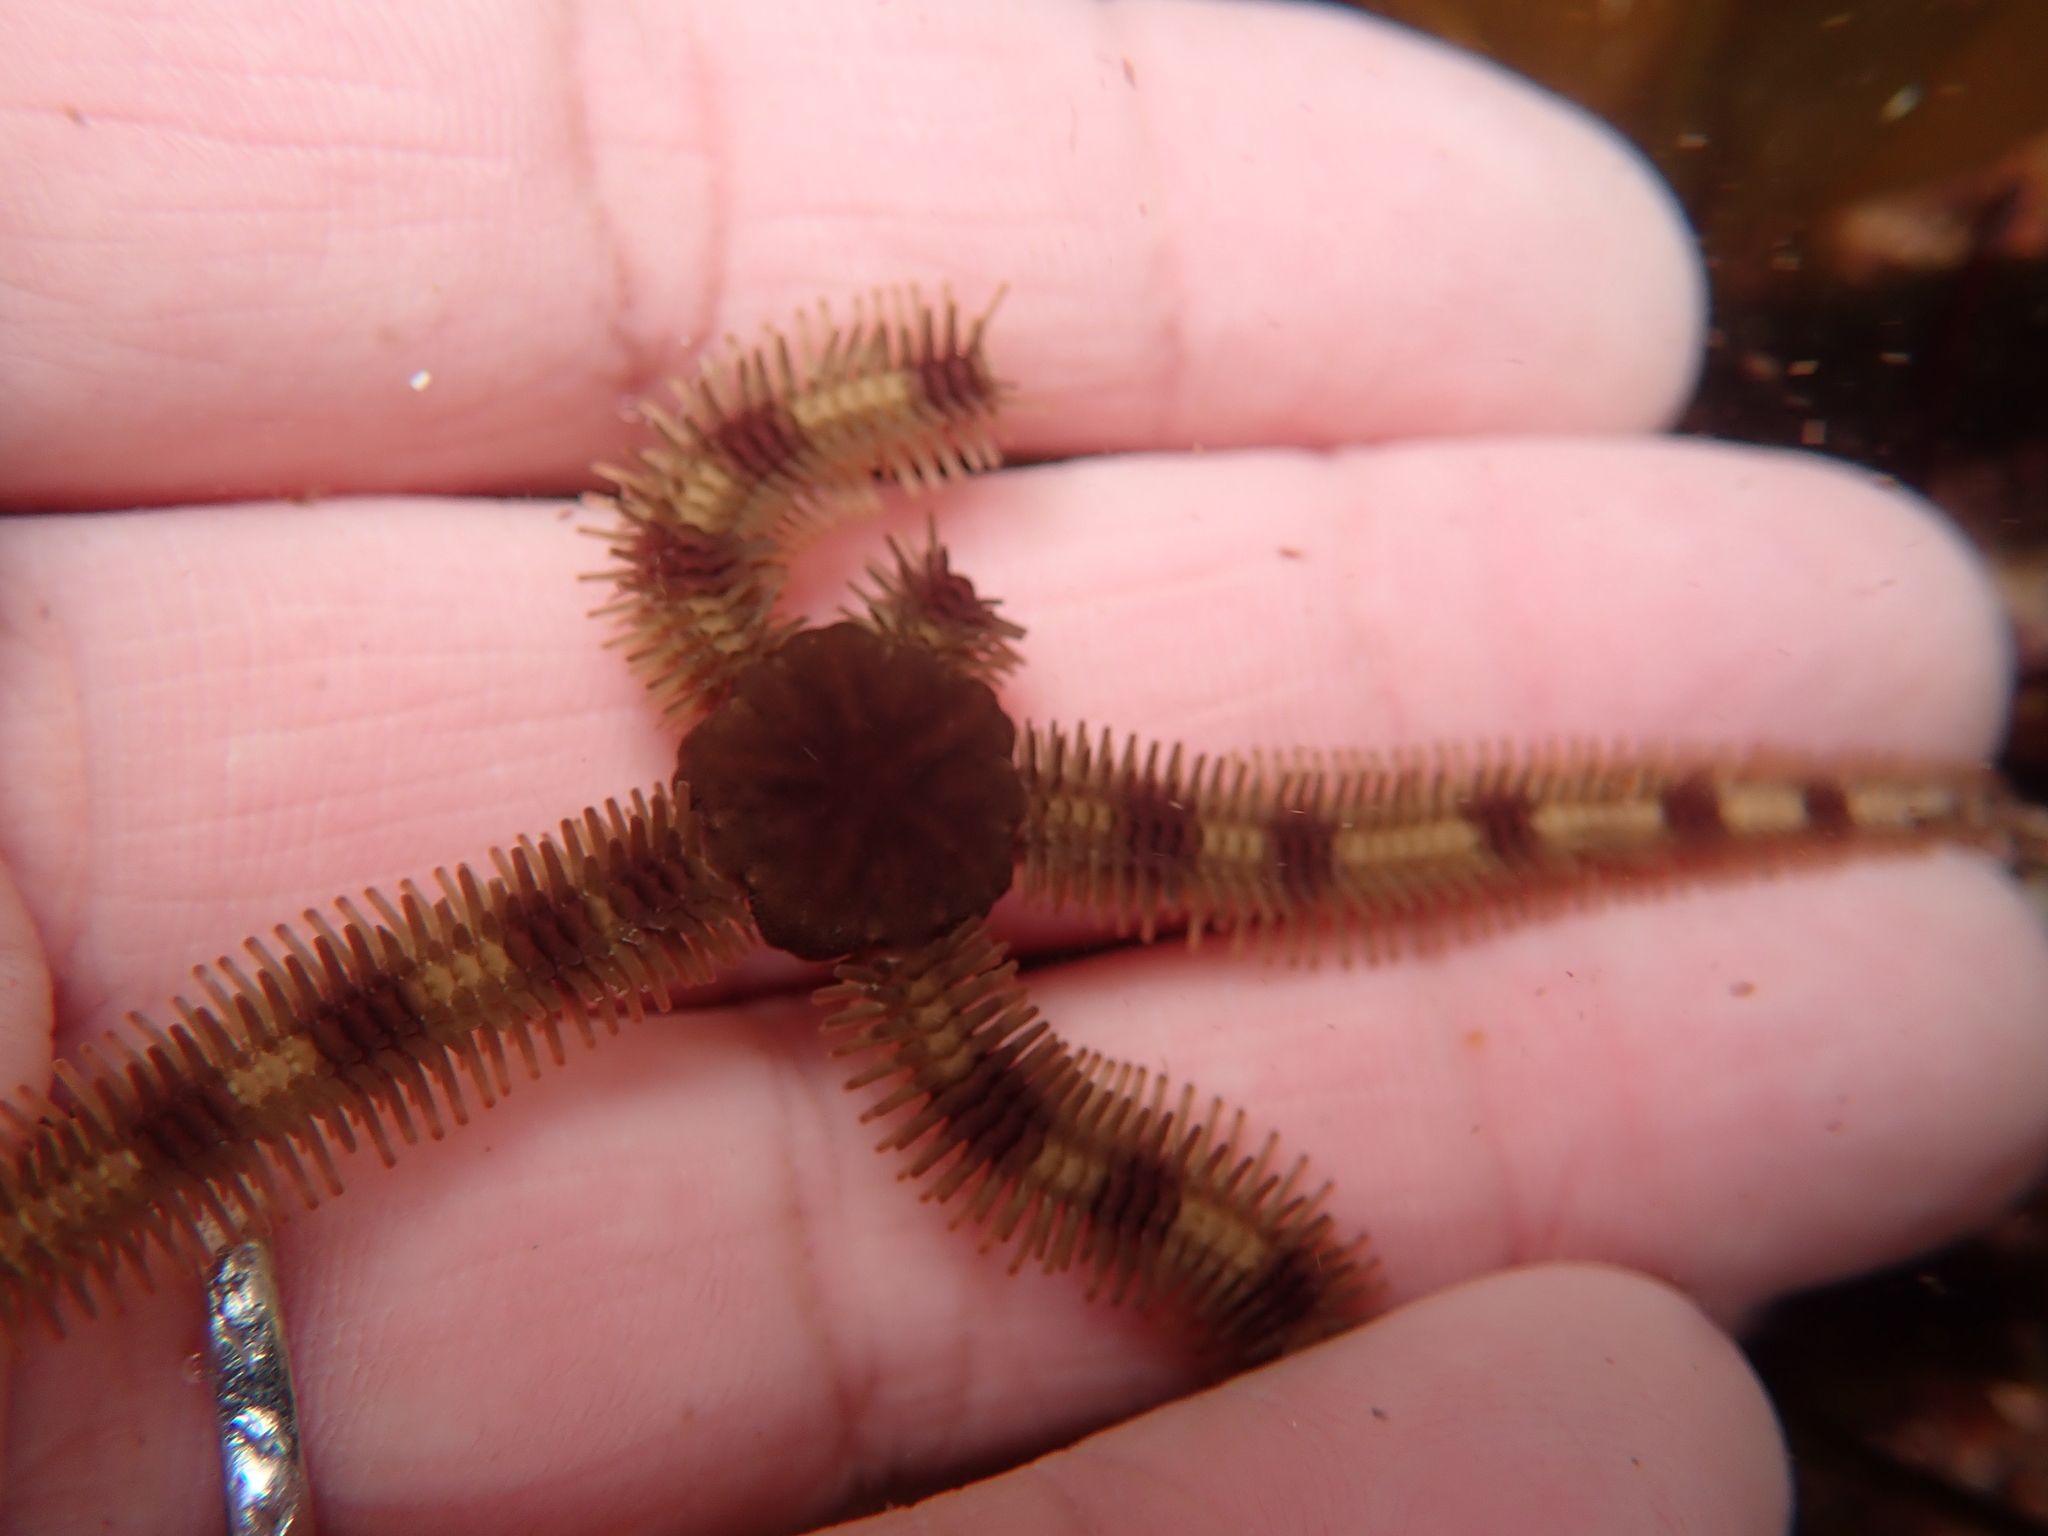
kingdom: Animalia
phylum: Echinodermata
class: Ophiuroidea
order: Ophiacanthida
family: Ophiopteridae
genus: Ophiopteris
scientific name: Ophiopteris papillosa
